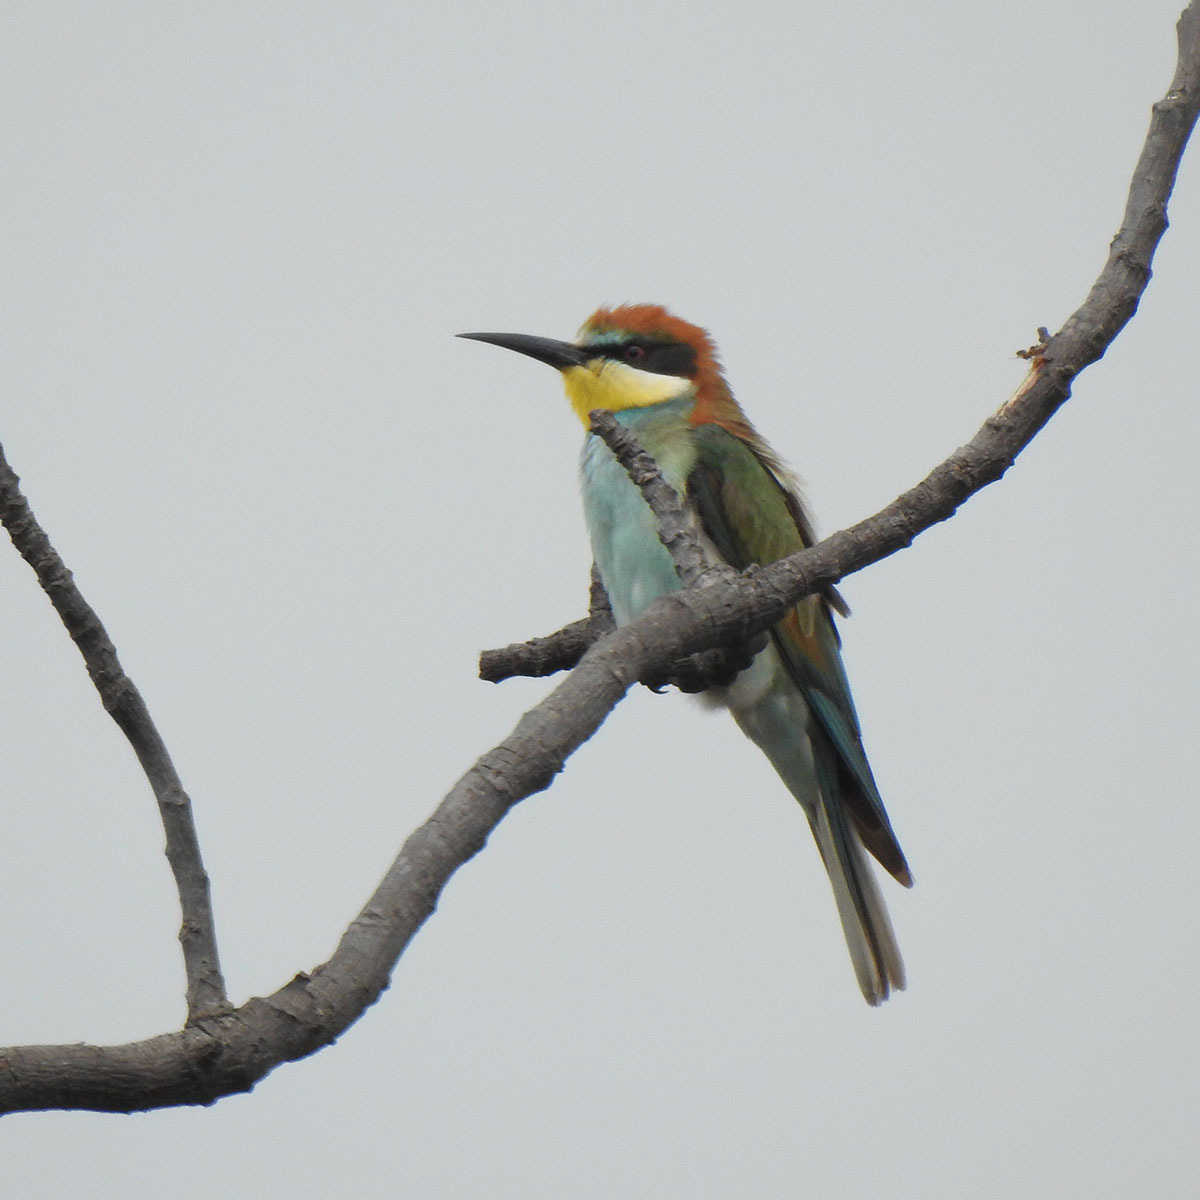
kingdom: Animalia
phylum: Chordata
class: Aves
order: Coraciiformes
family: Meropidae
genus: Merops
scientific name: Merops apiaster
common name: European bee-eater
